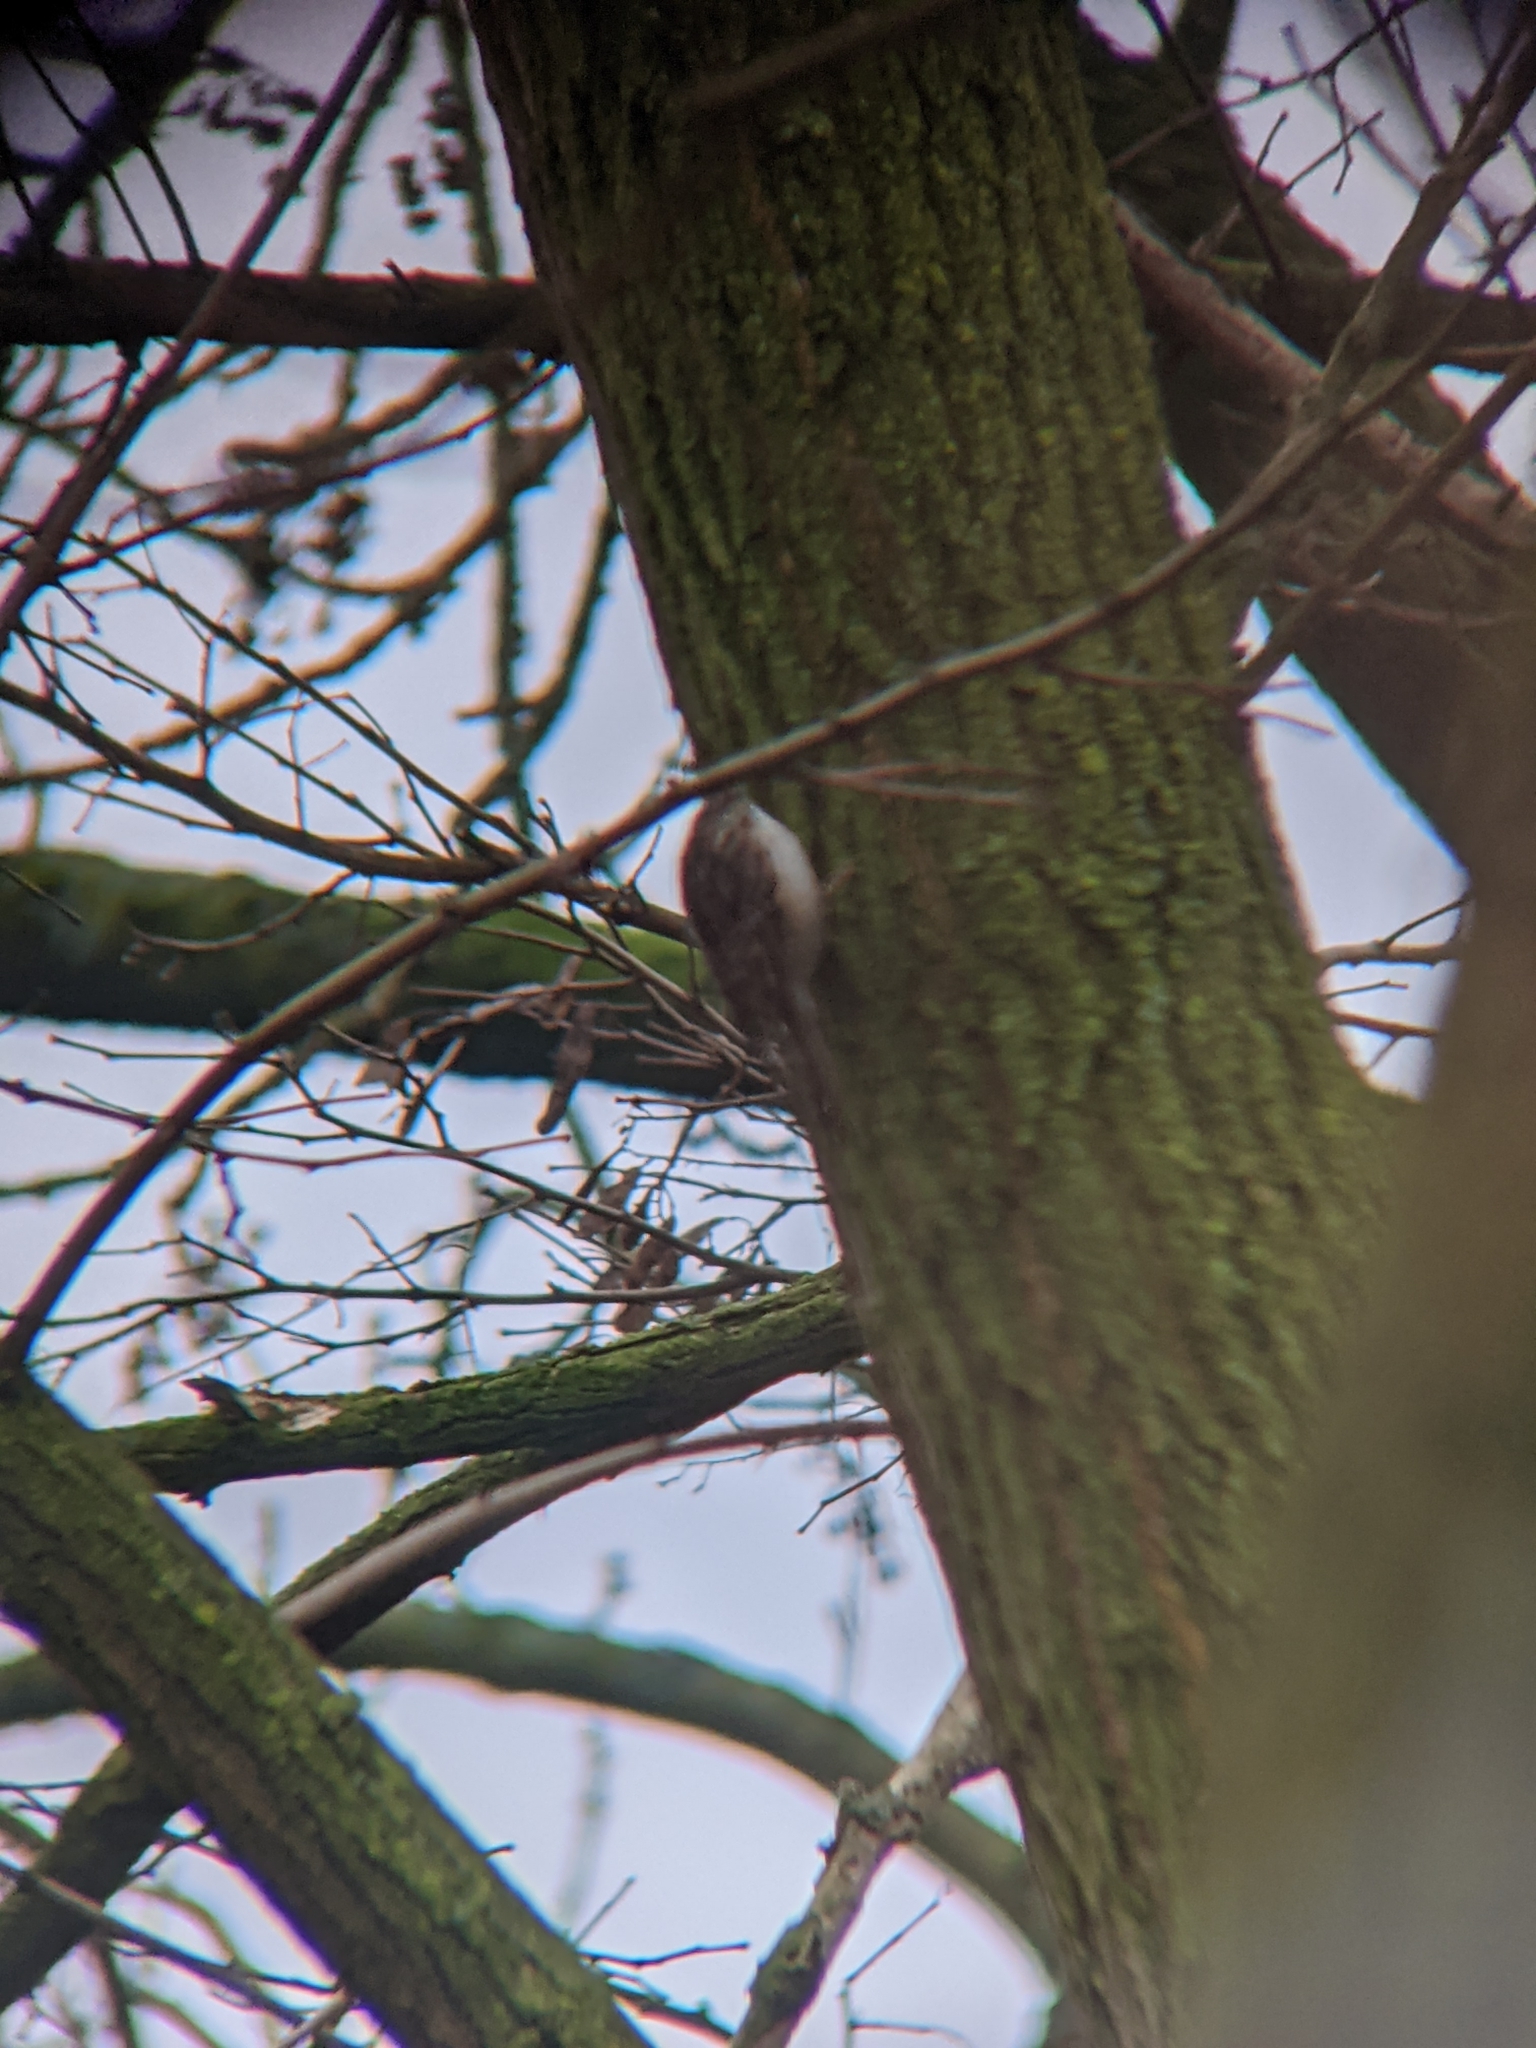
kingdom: Animalia
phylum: Chordata
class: Aves
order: Passeriformes
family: Certhiidae
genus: Certhia
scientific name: Certhia brachydactyla
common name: Short-toed treecreeper
